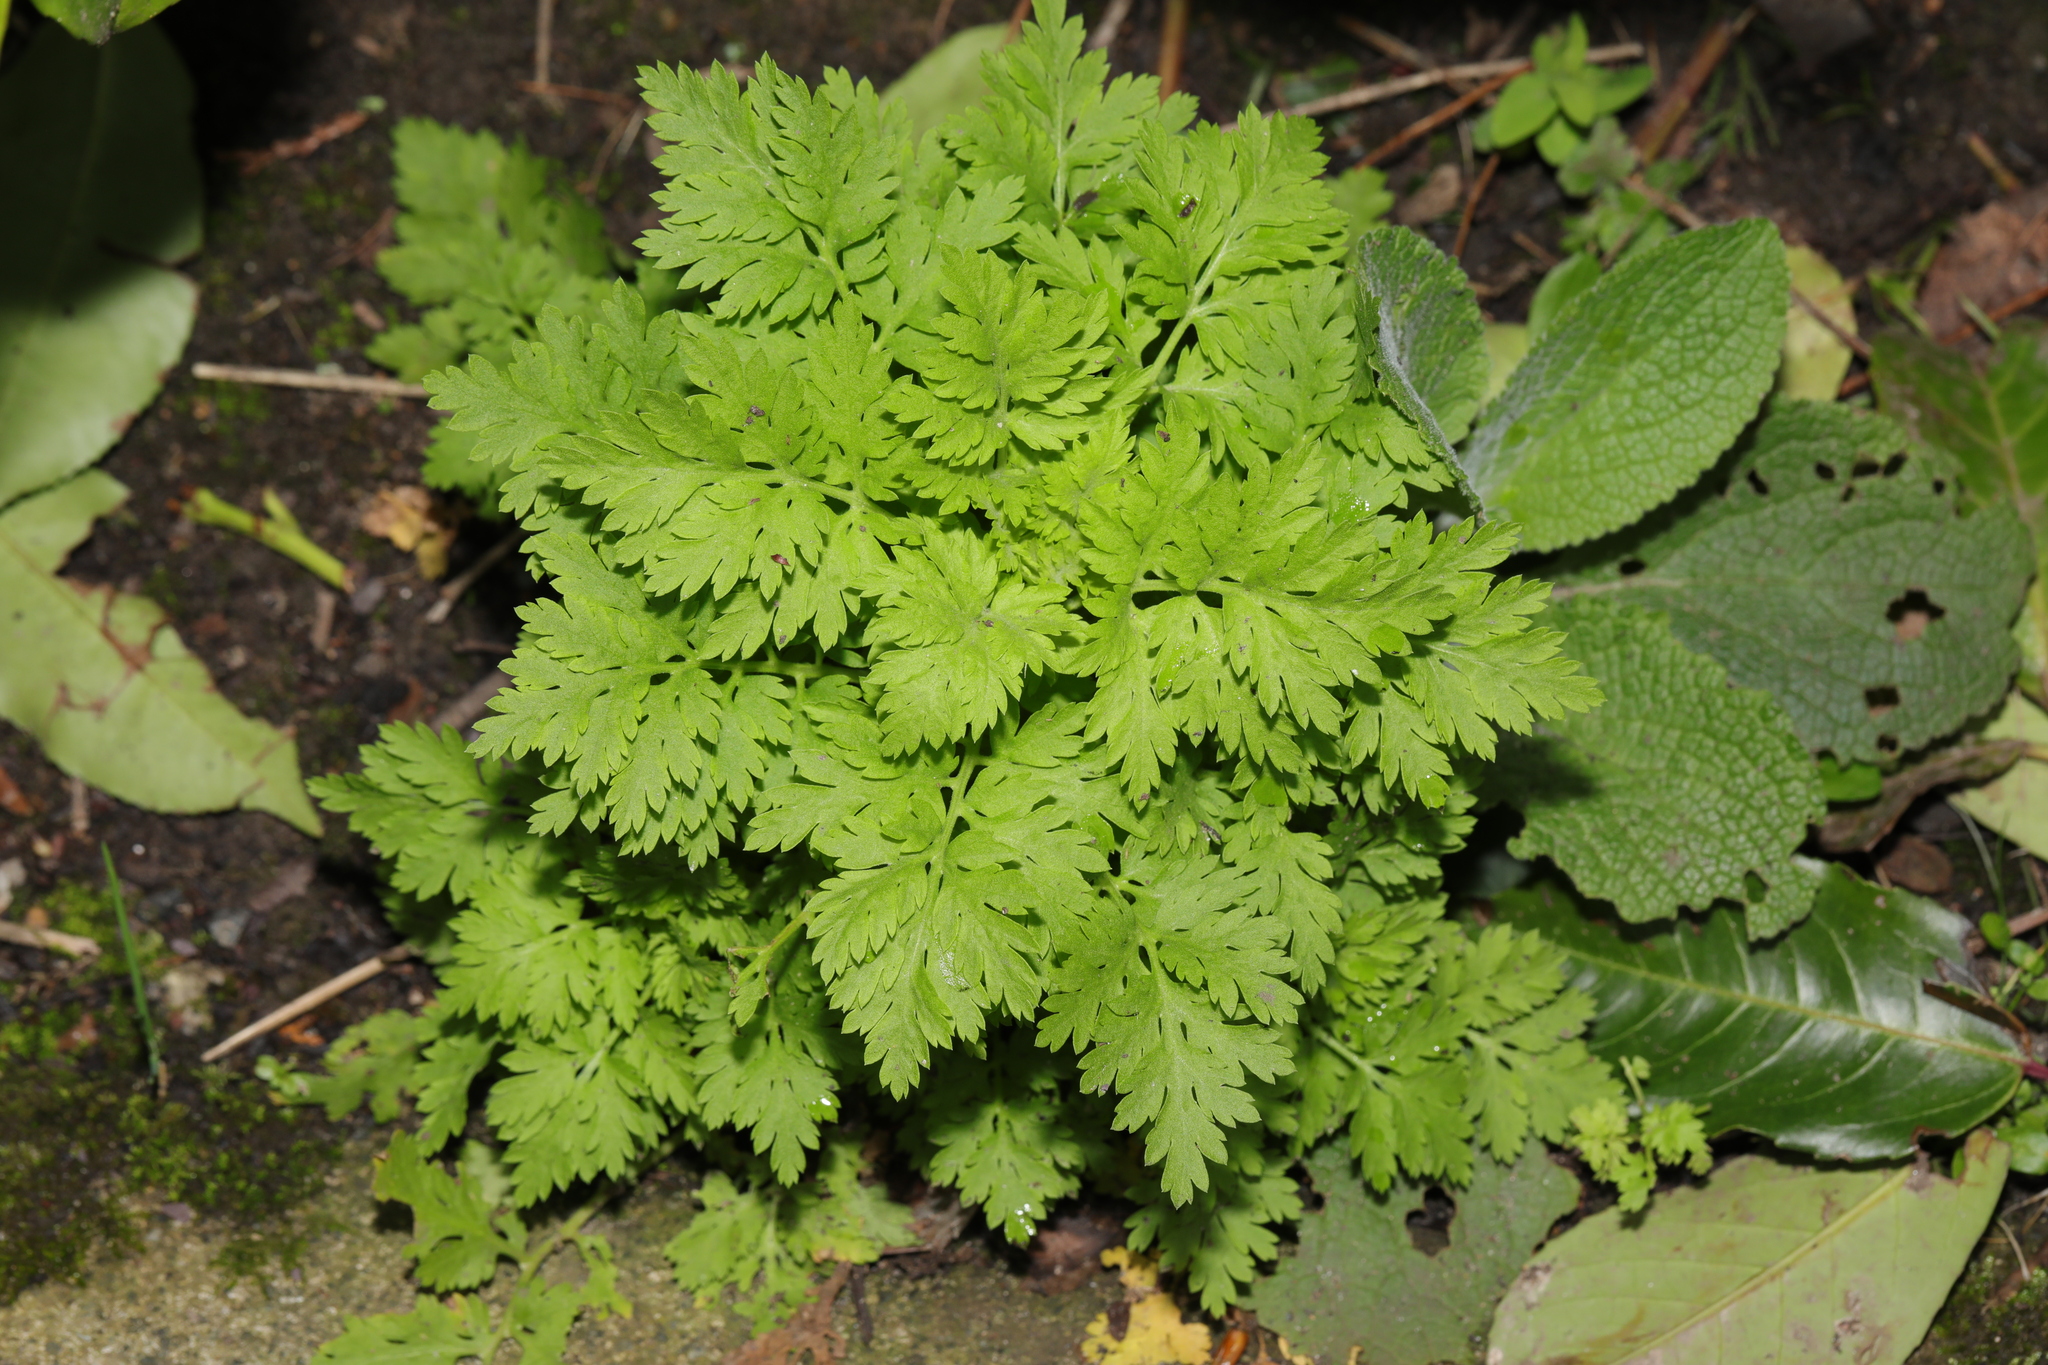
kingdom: Plantae
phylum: Tracheophyta
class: Magnoliopsida
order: Asterales
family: Asteraceae
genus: Tanacetum
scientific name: Tanacetum parthenium
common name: Feverfew
